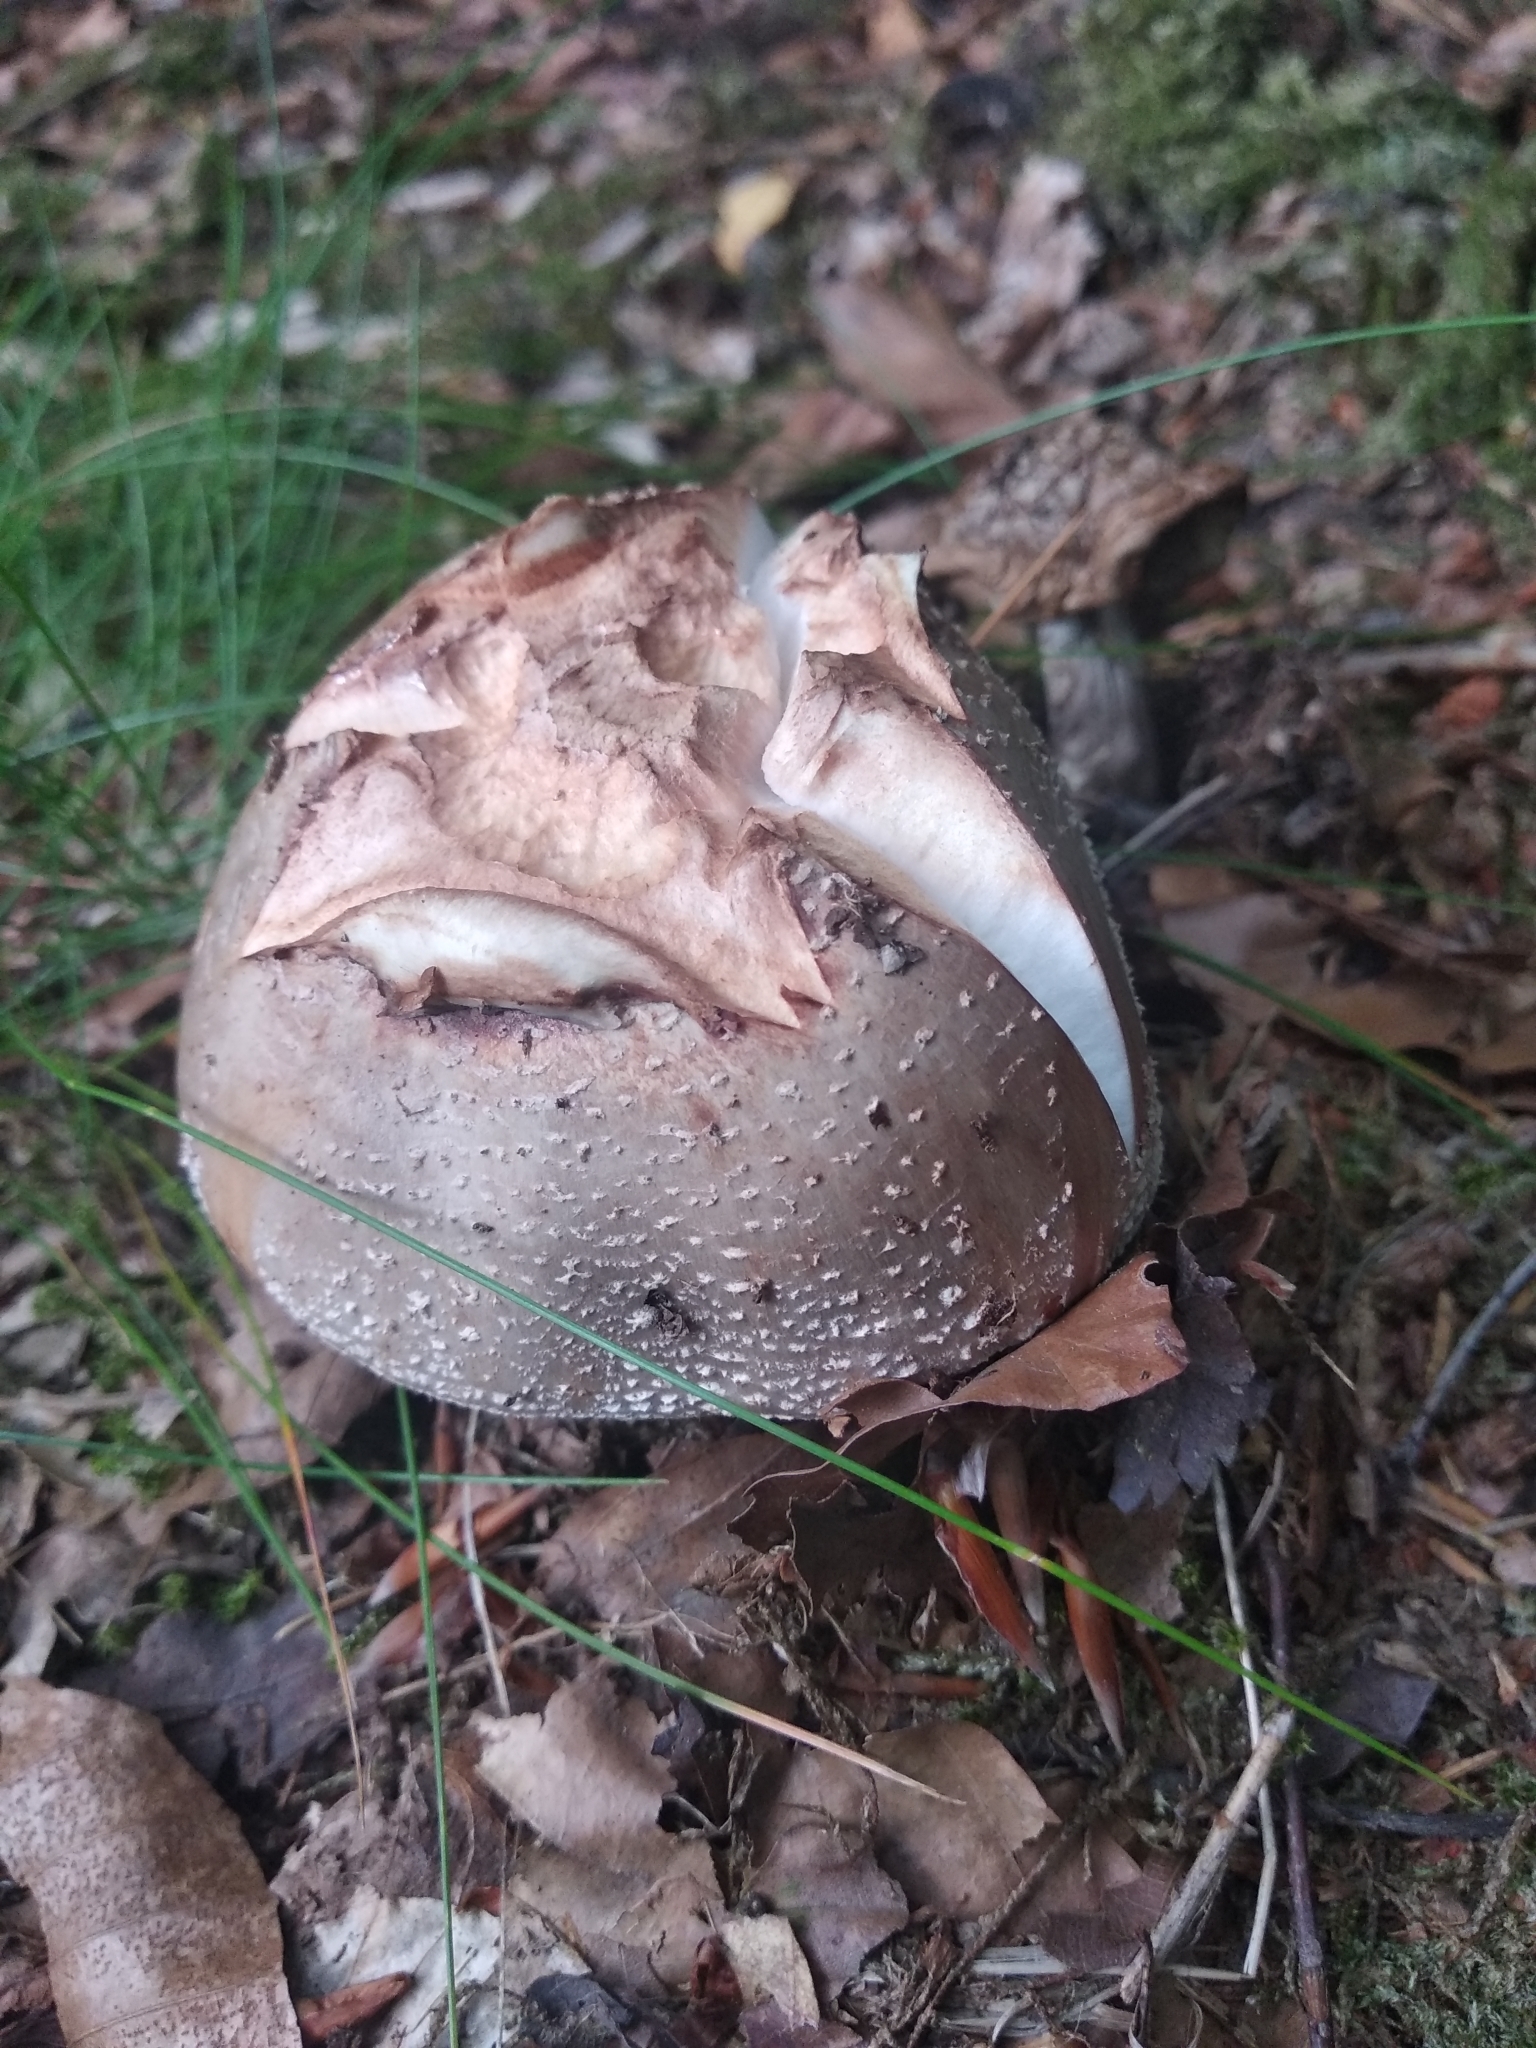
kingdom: Fungi
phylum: Basidiomycota
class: Agaricomycetes
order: Agaricales
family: Amanitaceae
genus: Amanita
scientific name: Amanita rubescens
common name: Blusher
